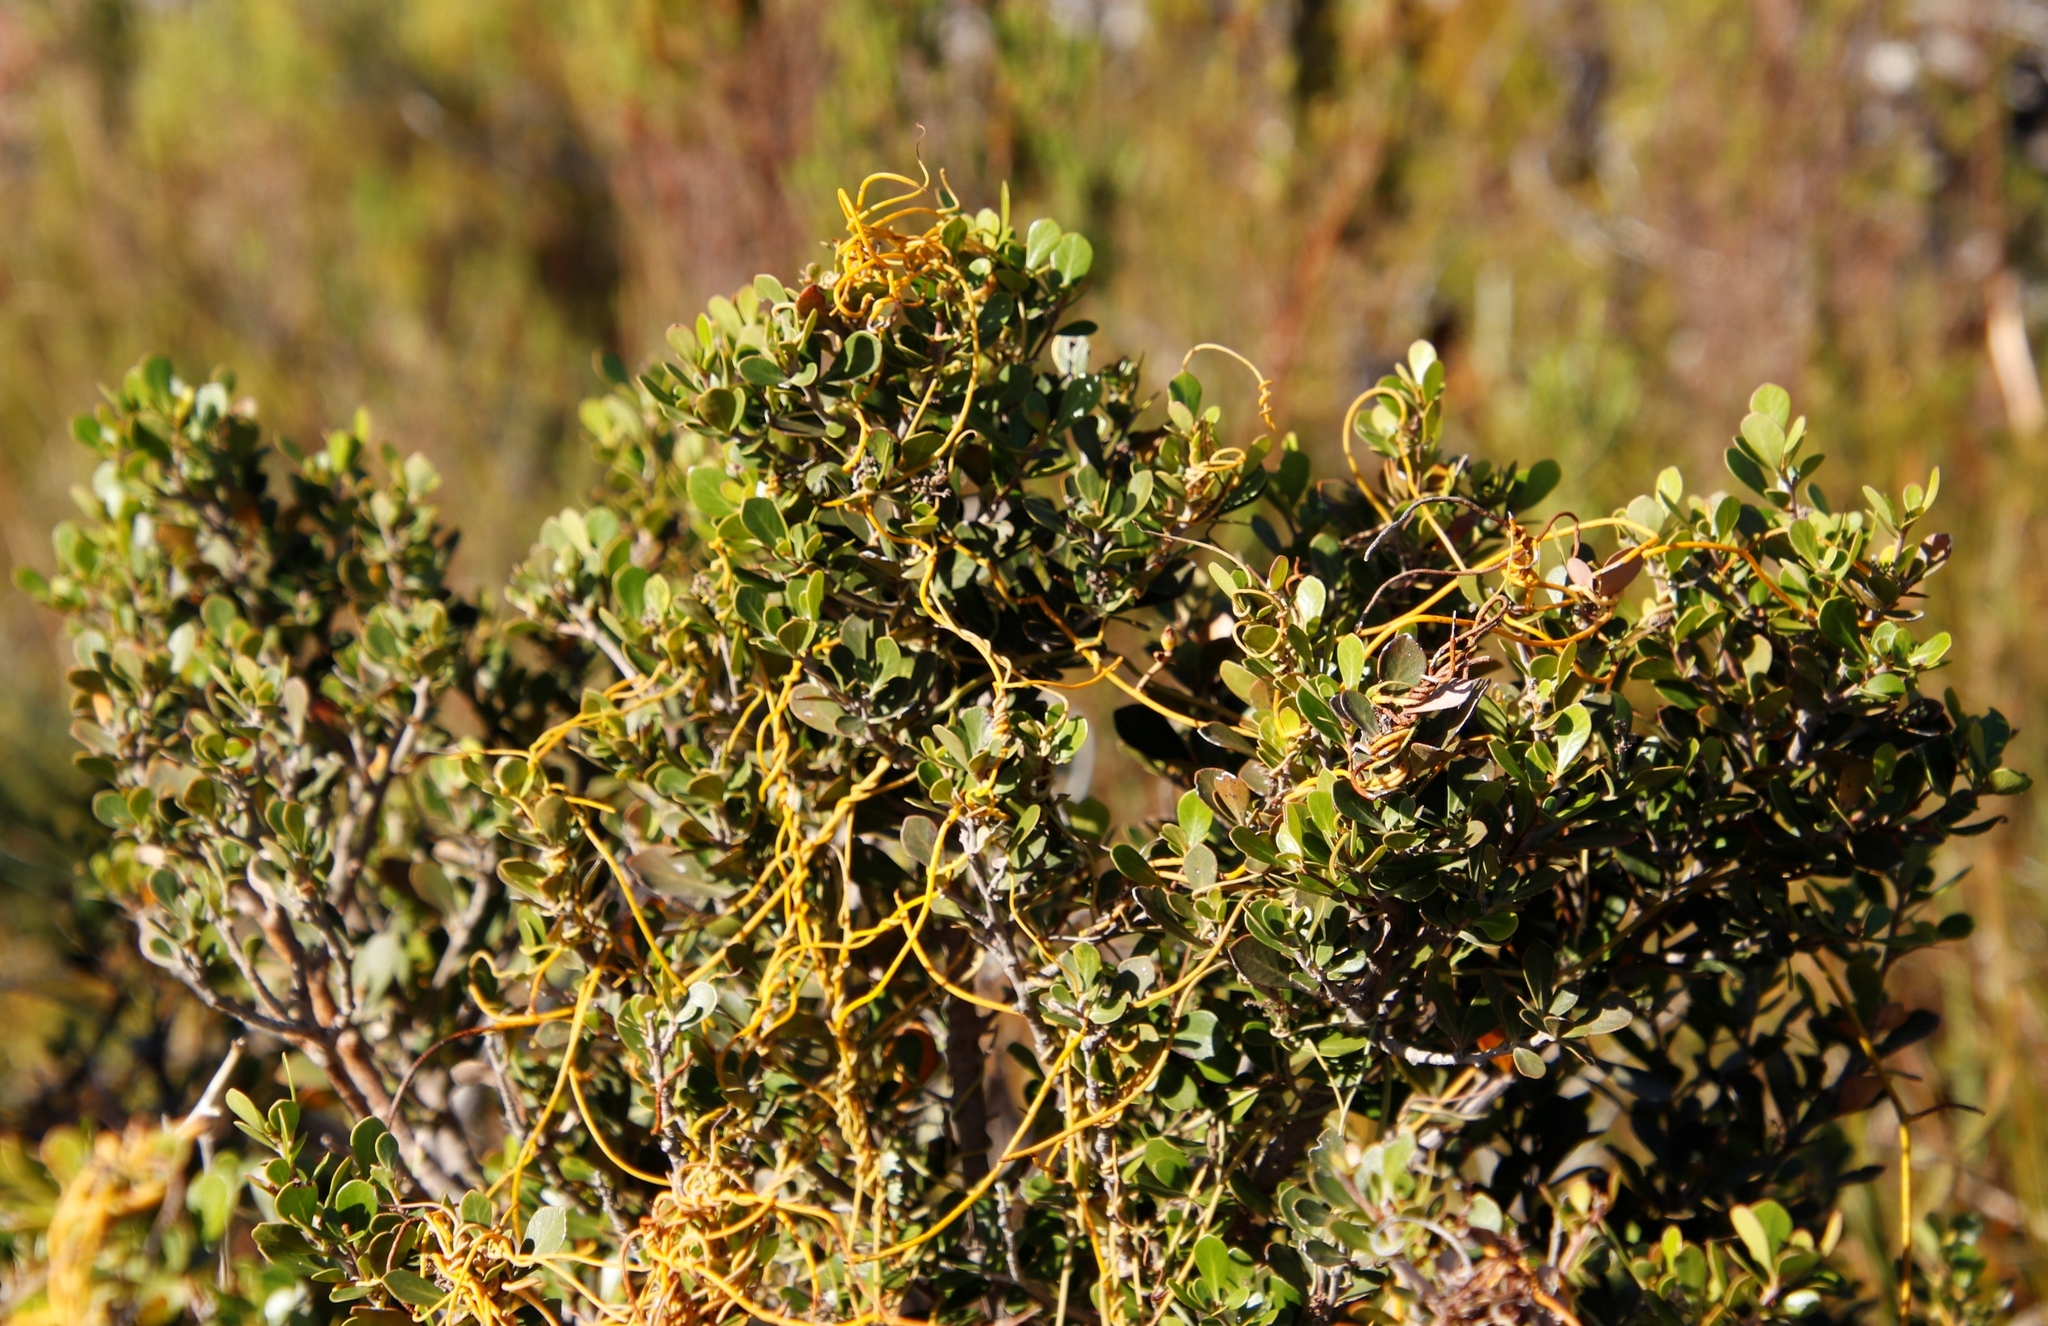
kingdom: Plantae
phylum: Tracheophyta
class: Magnoliopsida
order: Laurales
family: Lauraceae
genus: Cassytha
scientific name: Cassytha ciliolata
